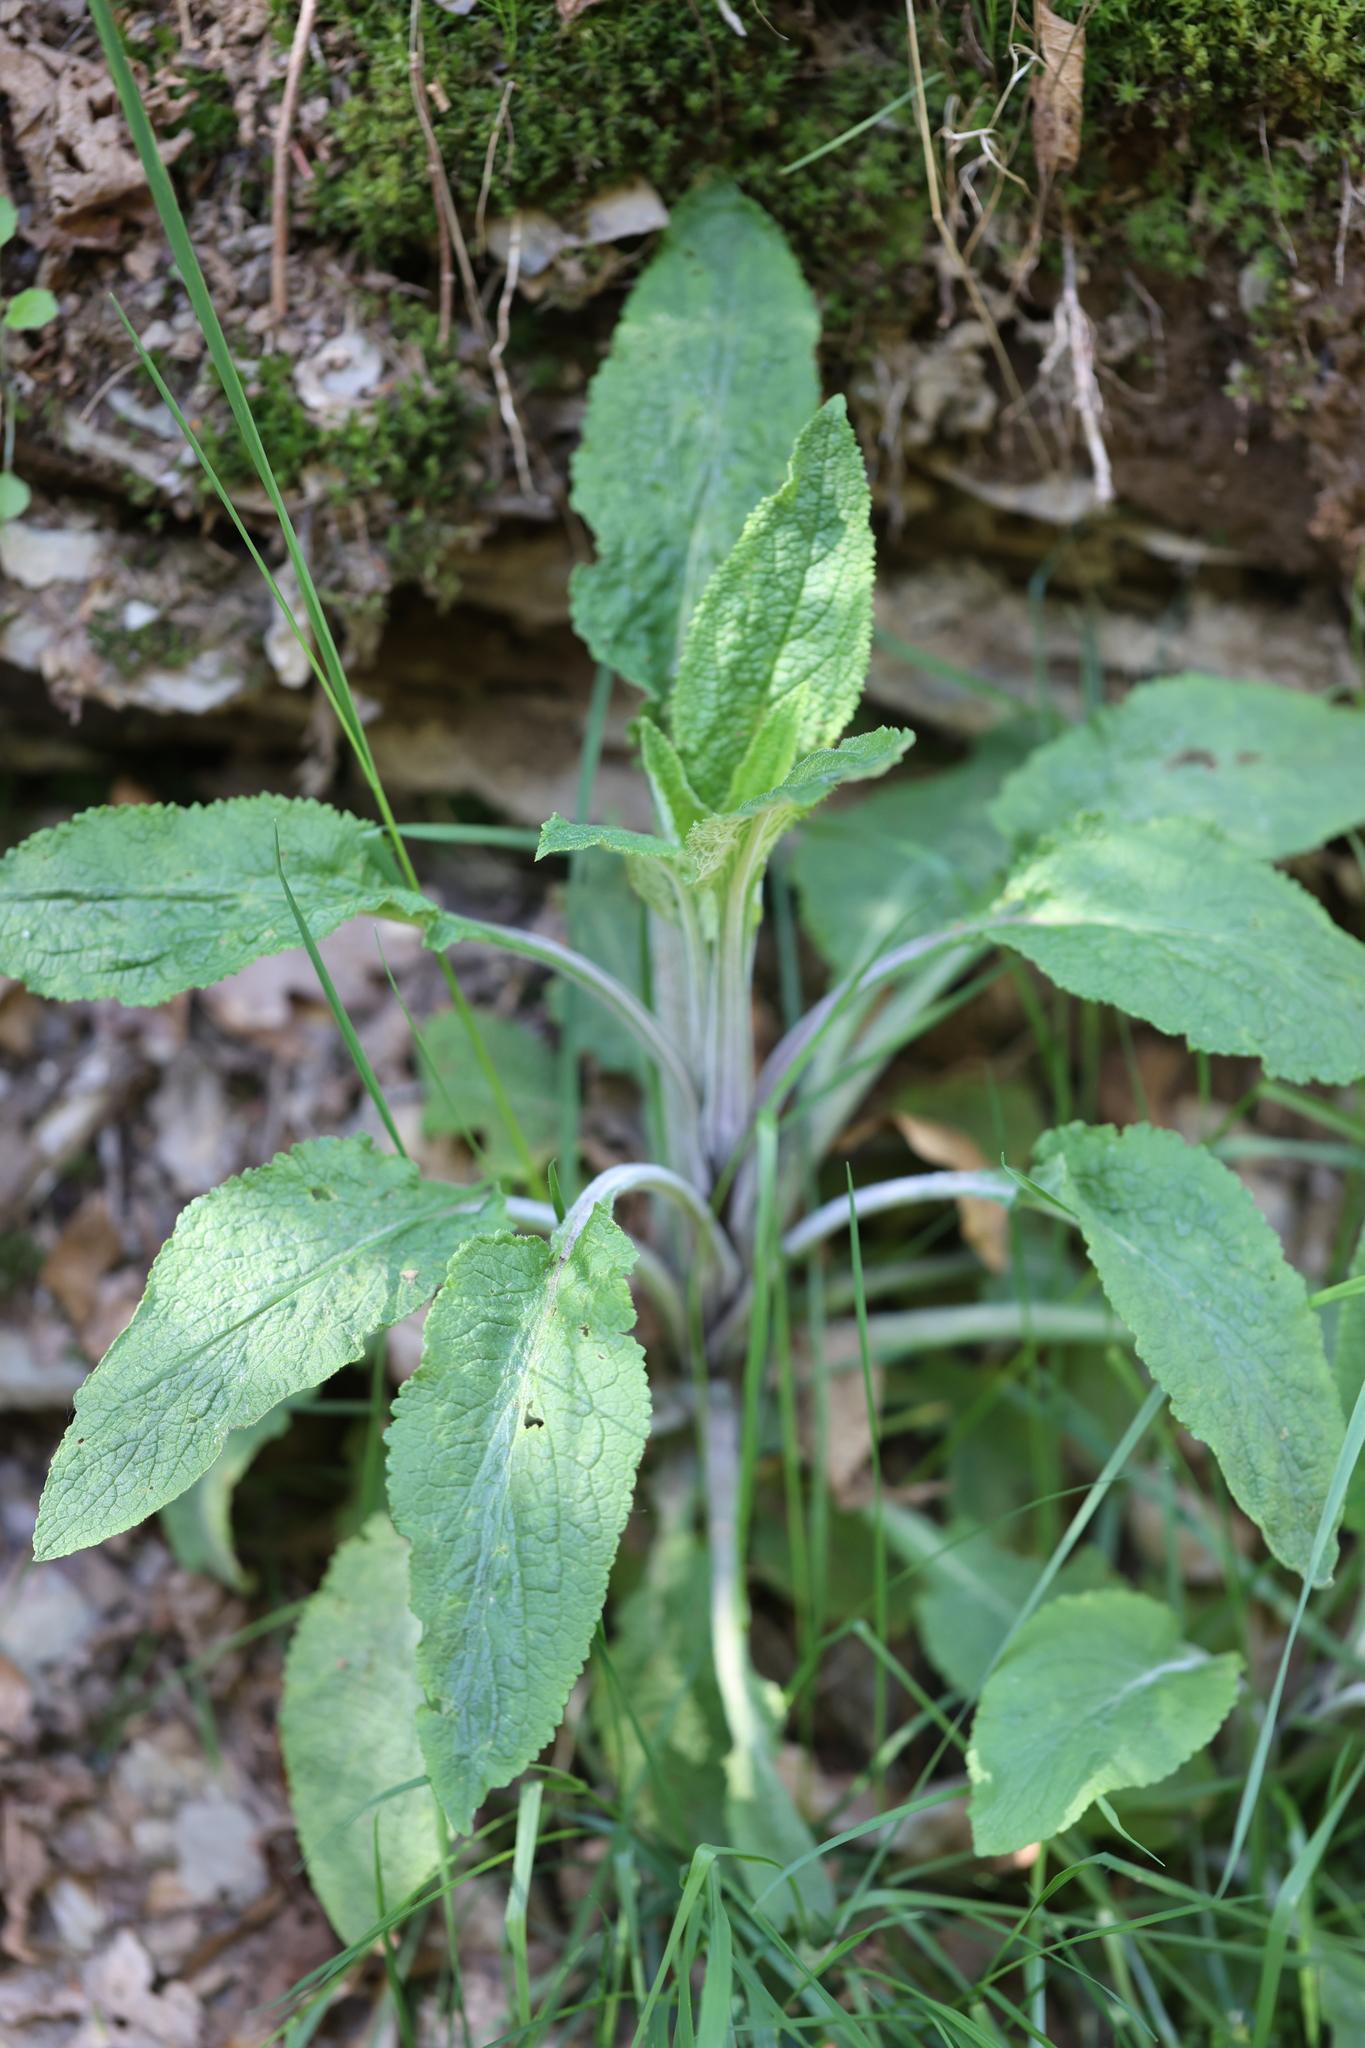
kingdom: Plantae
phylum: Tracheophyta
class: Magnoliopsida
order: Lamiales
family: Plantaginaceae
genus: Digitalis
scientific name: Digitalis purpurea
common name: Foxglove
